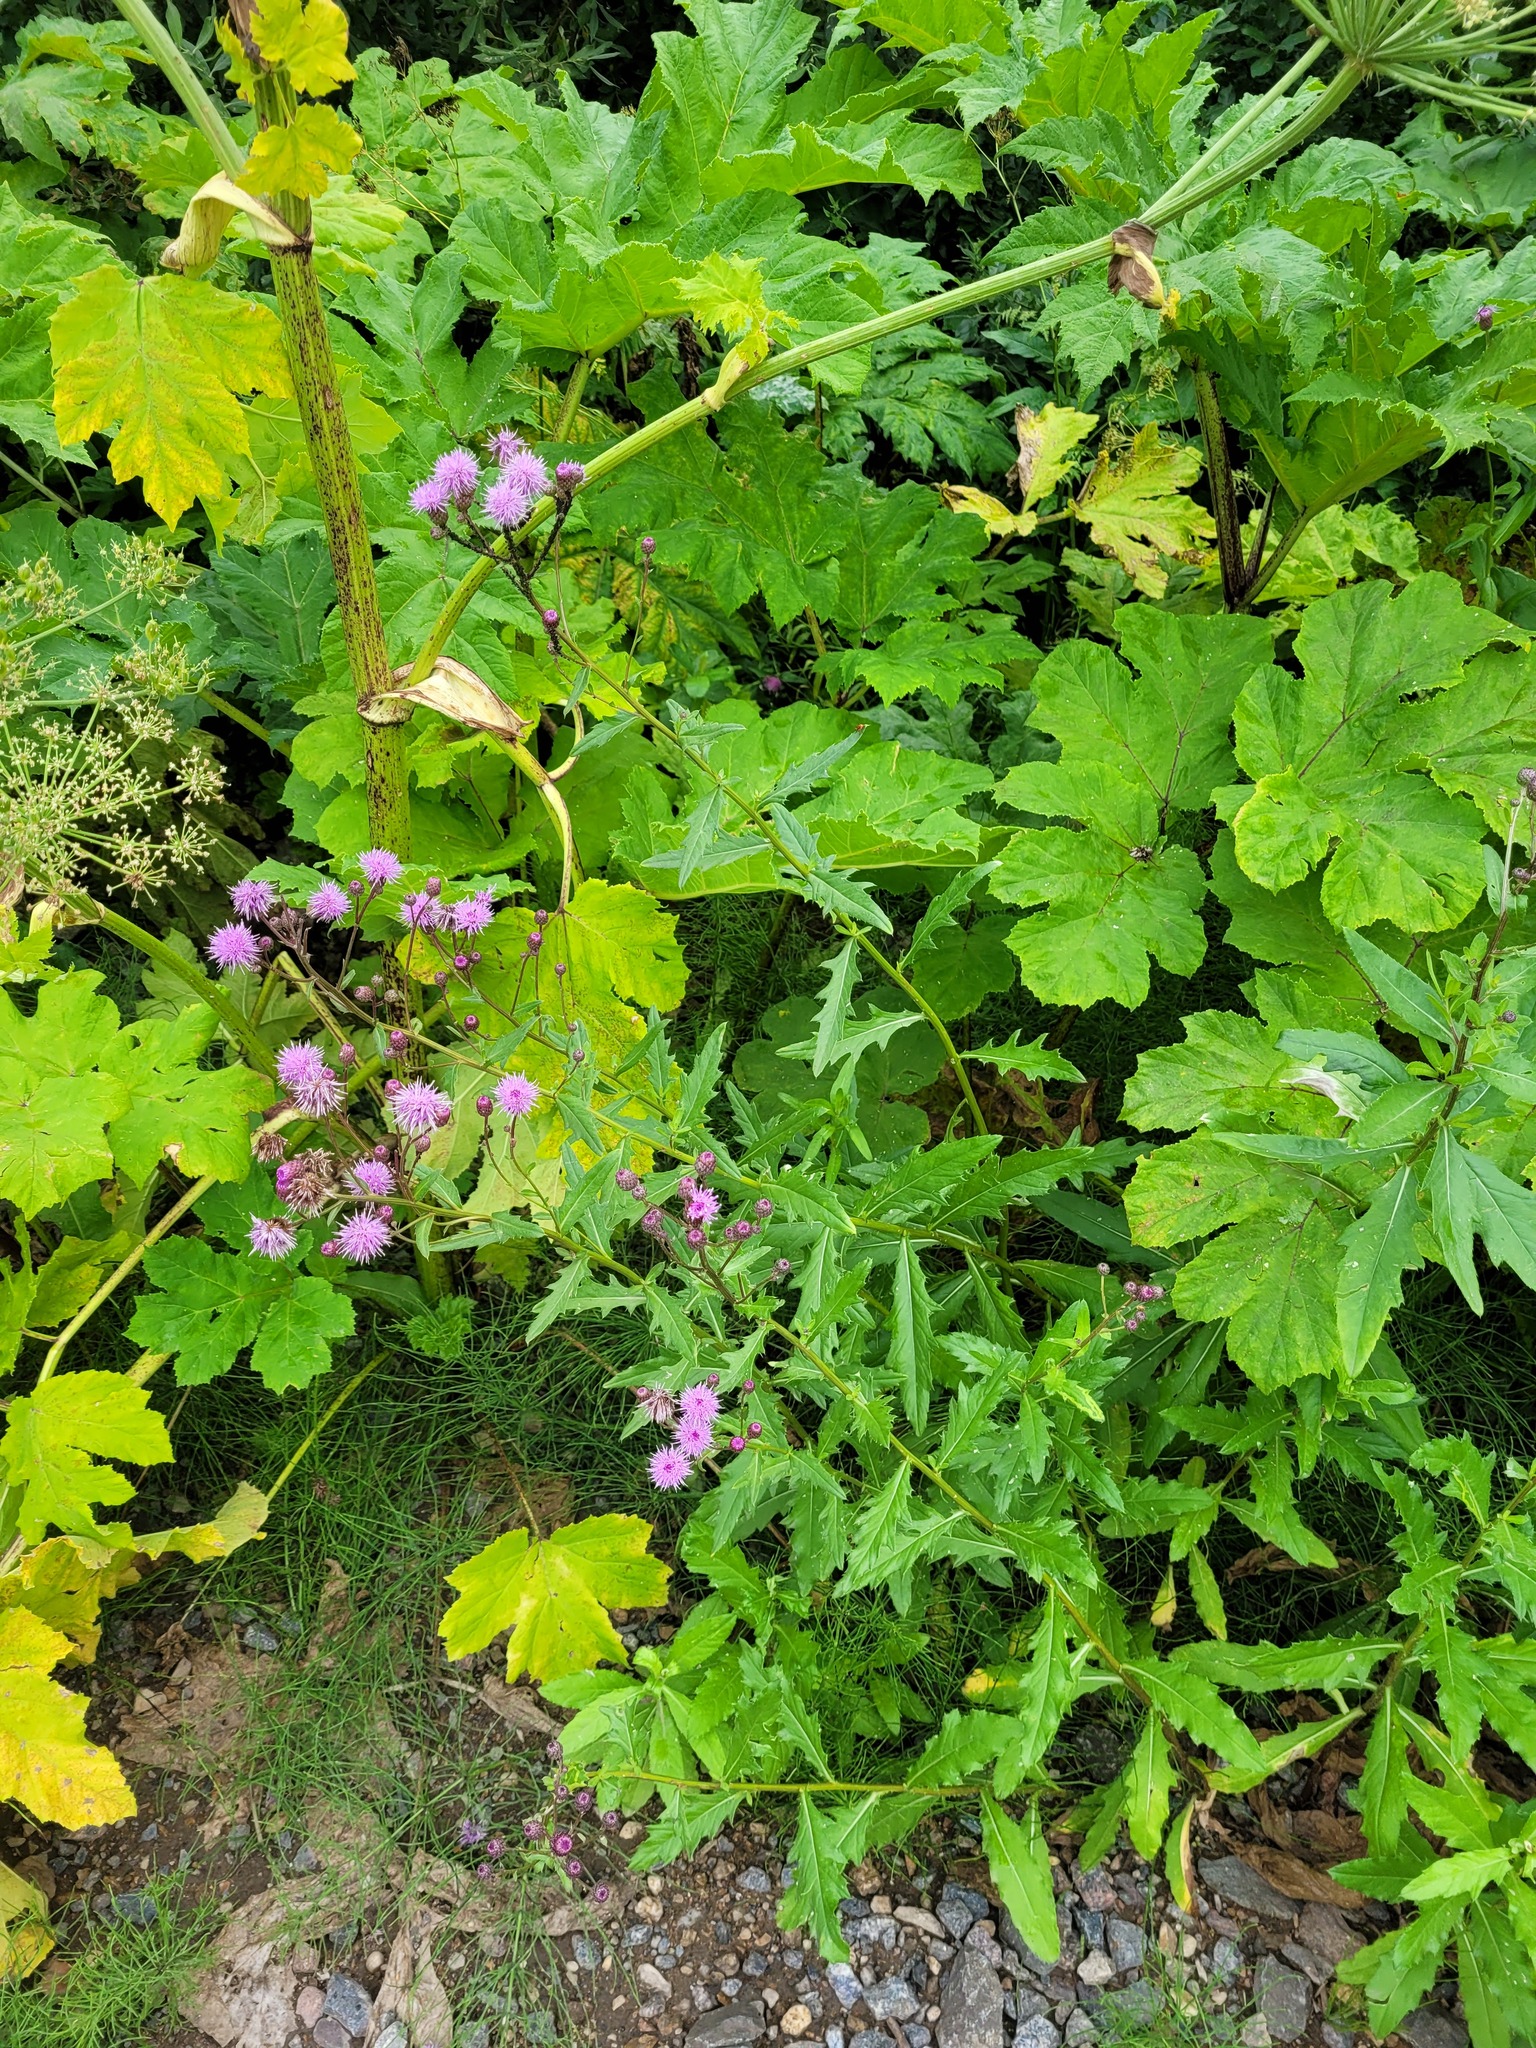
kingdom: Plantae
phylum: Tracheophyta
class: Magnoliopsida
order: Asterales
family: Asteraceae
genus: Cirsium
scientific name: Cirsium arvense
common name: Creeping thistle
